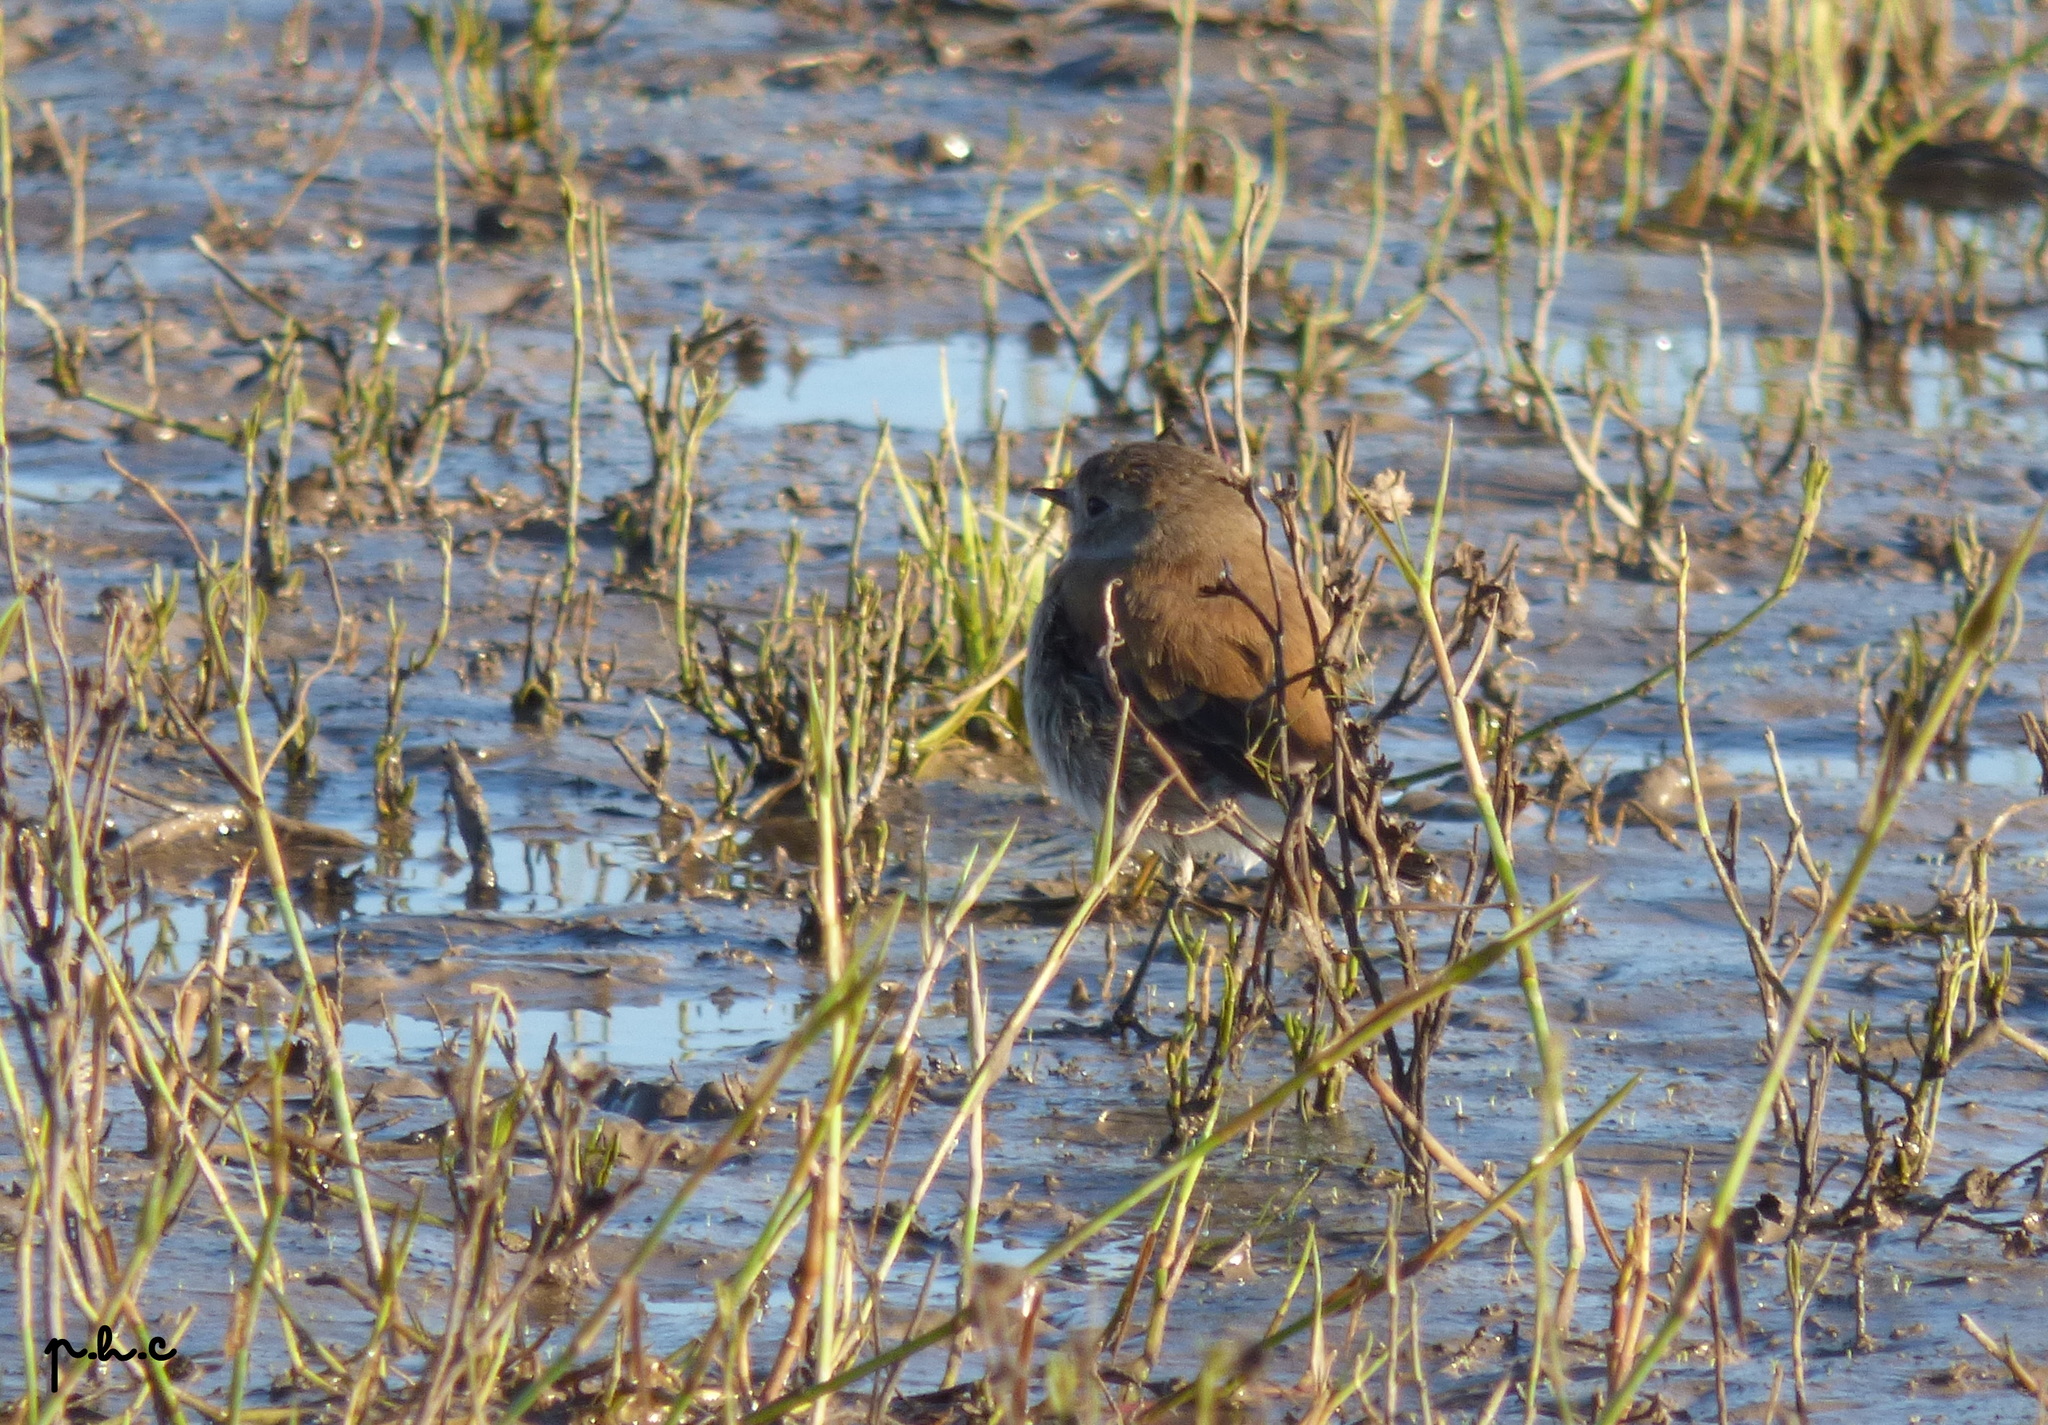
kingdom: Animalia
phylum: Chordata
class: Aves
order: Passeriformes
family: Tyrannidae
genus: Lessonia
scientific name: Lessonia rufa
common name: Austral negrito
